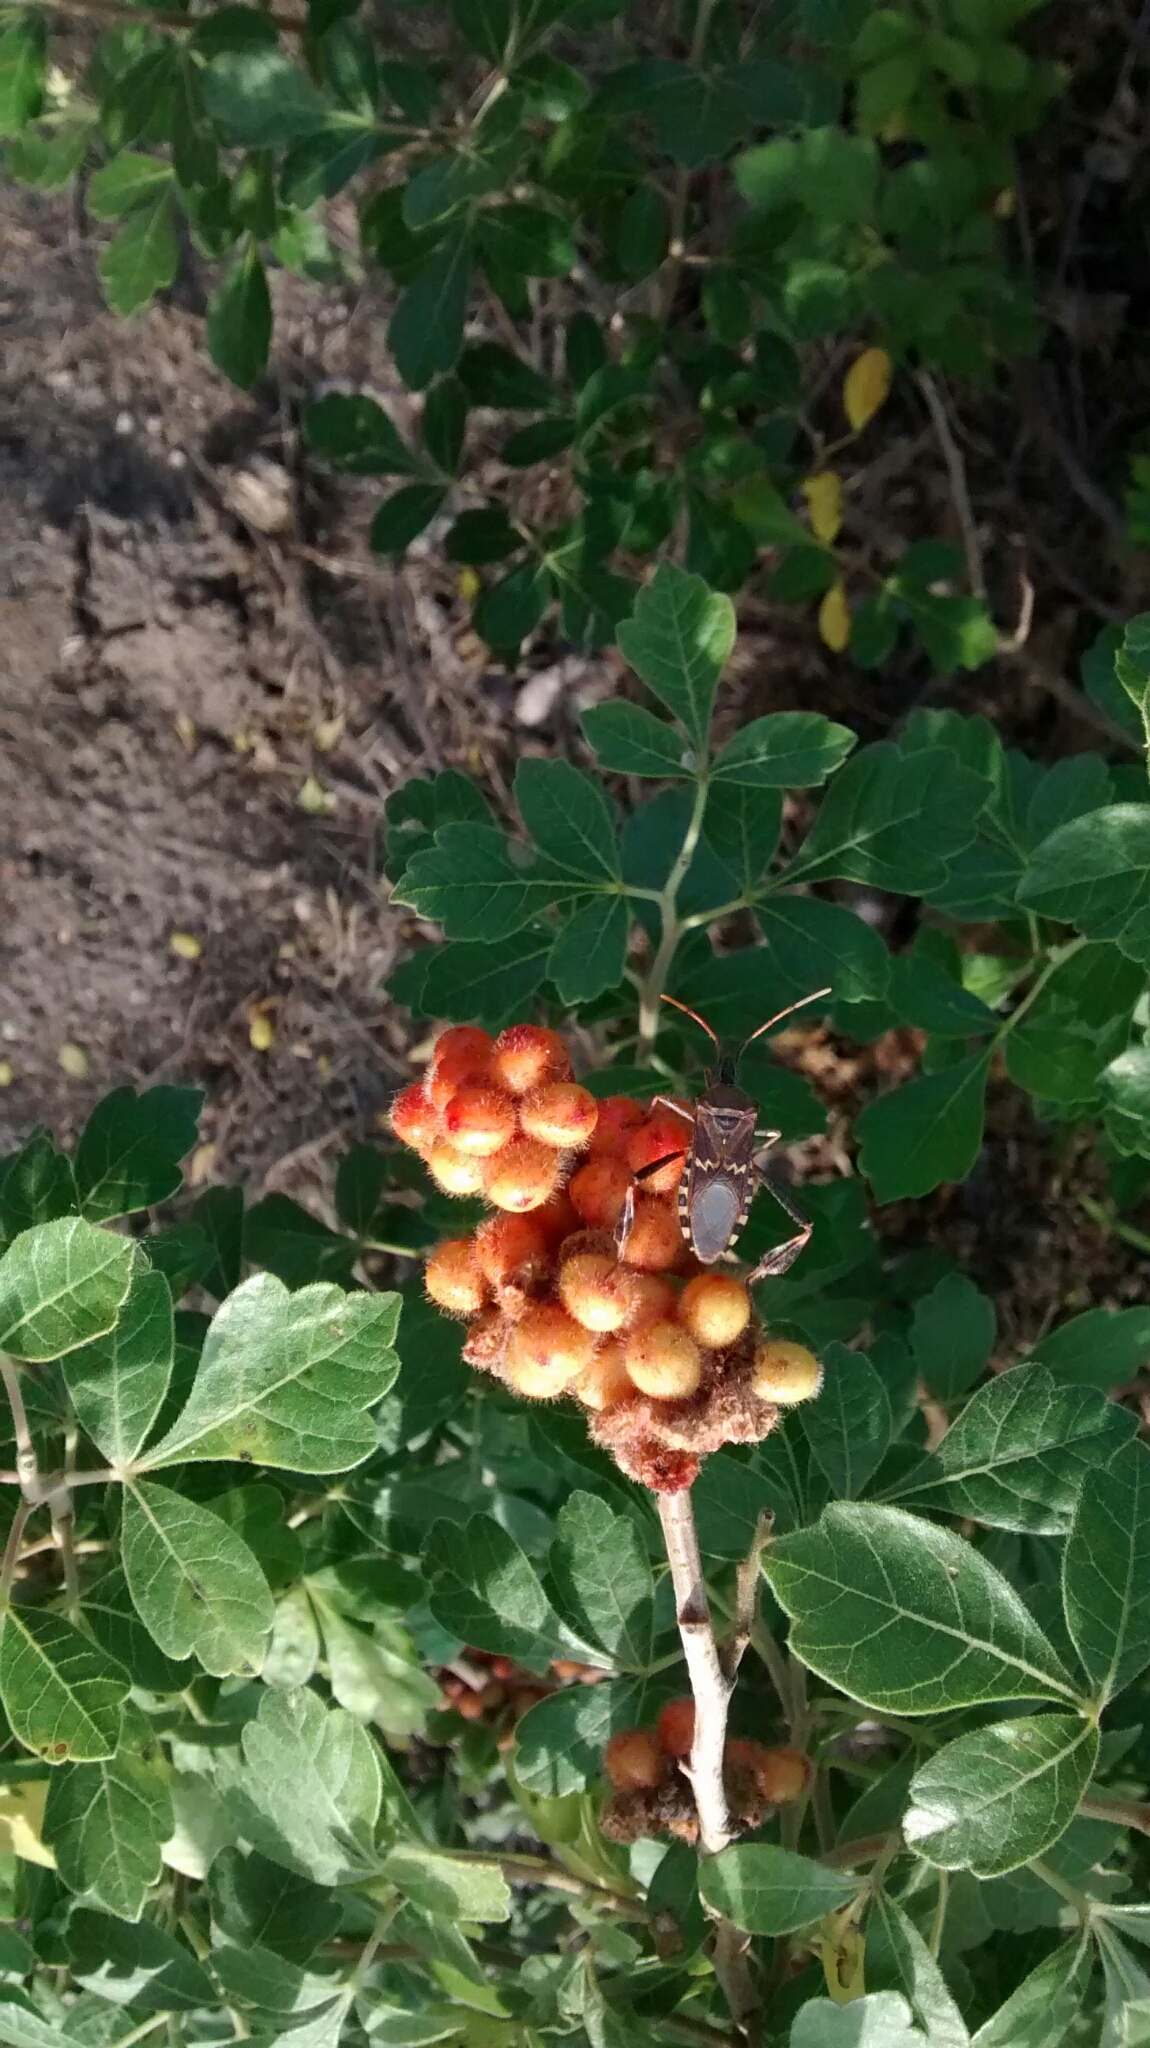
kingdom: Animalia
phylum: Arthropoda
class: Insecta
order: Hemiptera
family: Coreidae
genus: Leptoglossus
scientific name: Leptoglossus clypealis
